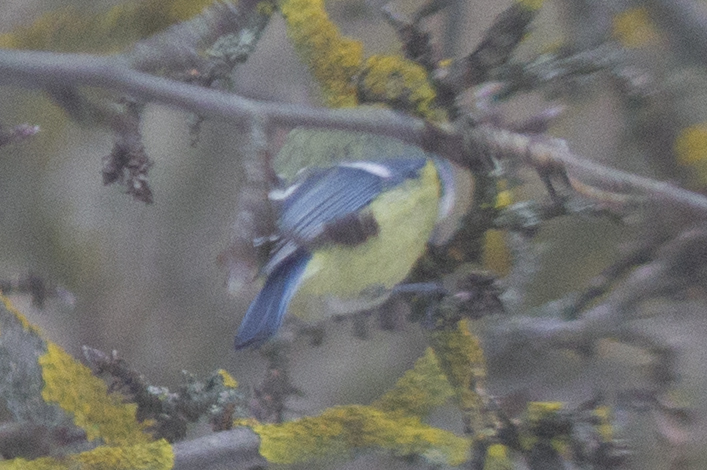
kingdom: Animalia
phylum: Chordata
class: Aves
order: Passeriformes
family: Paridae
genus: Cyanistes
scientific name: Cyanistes caeruleus
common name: Eurasian blue tit
